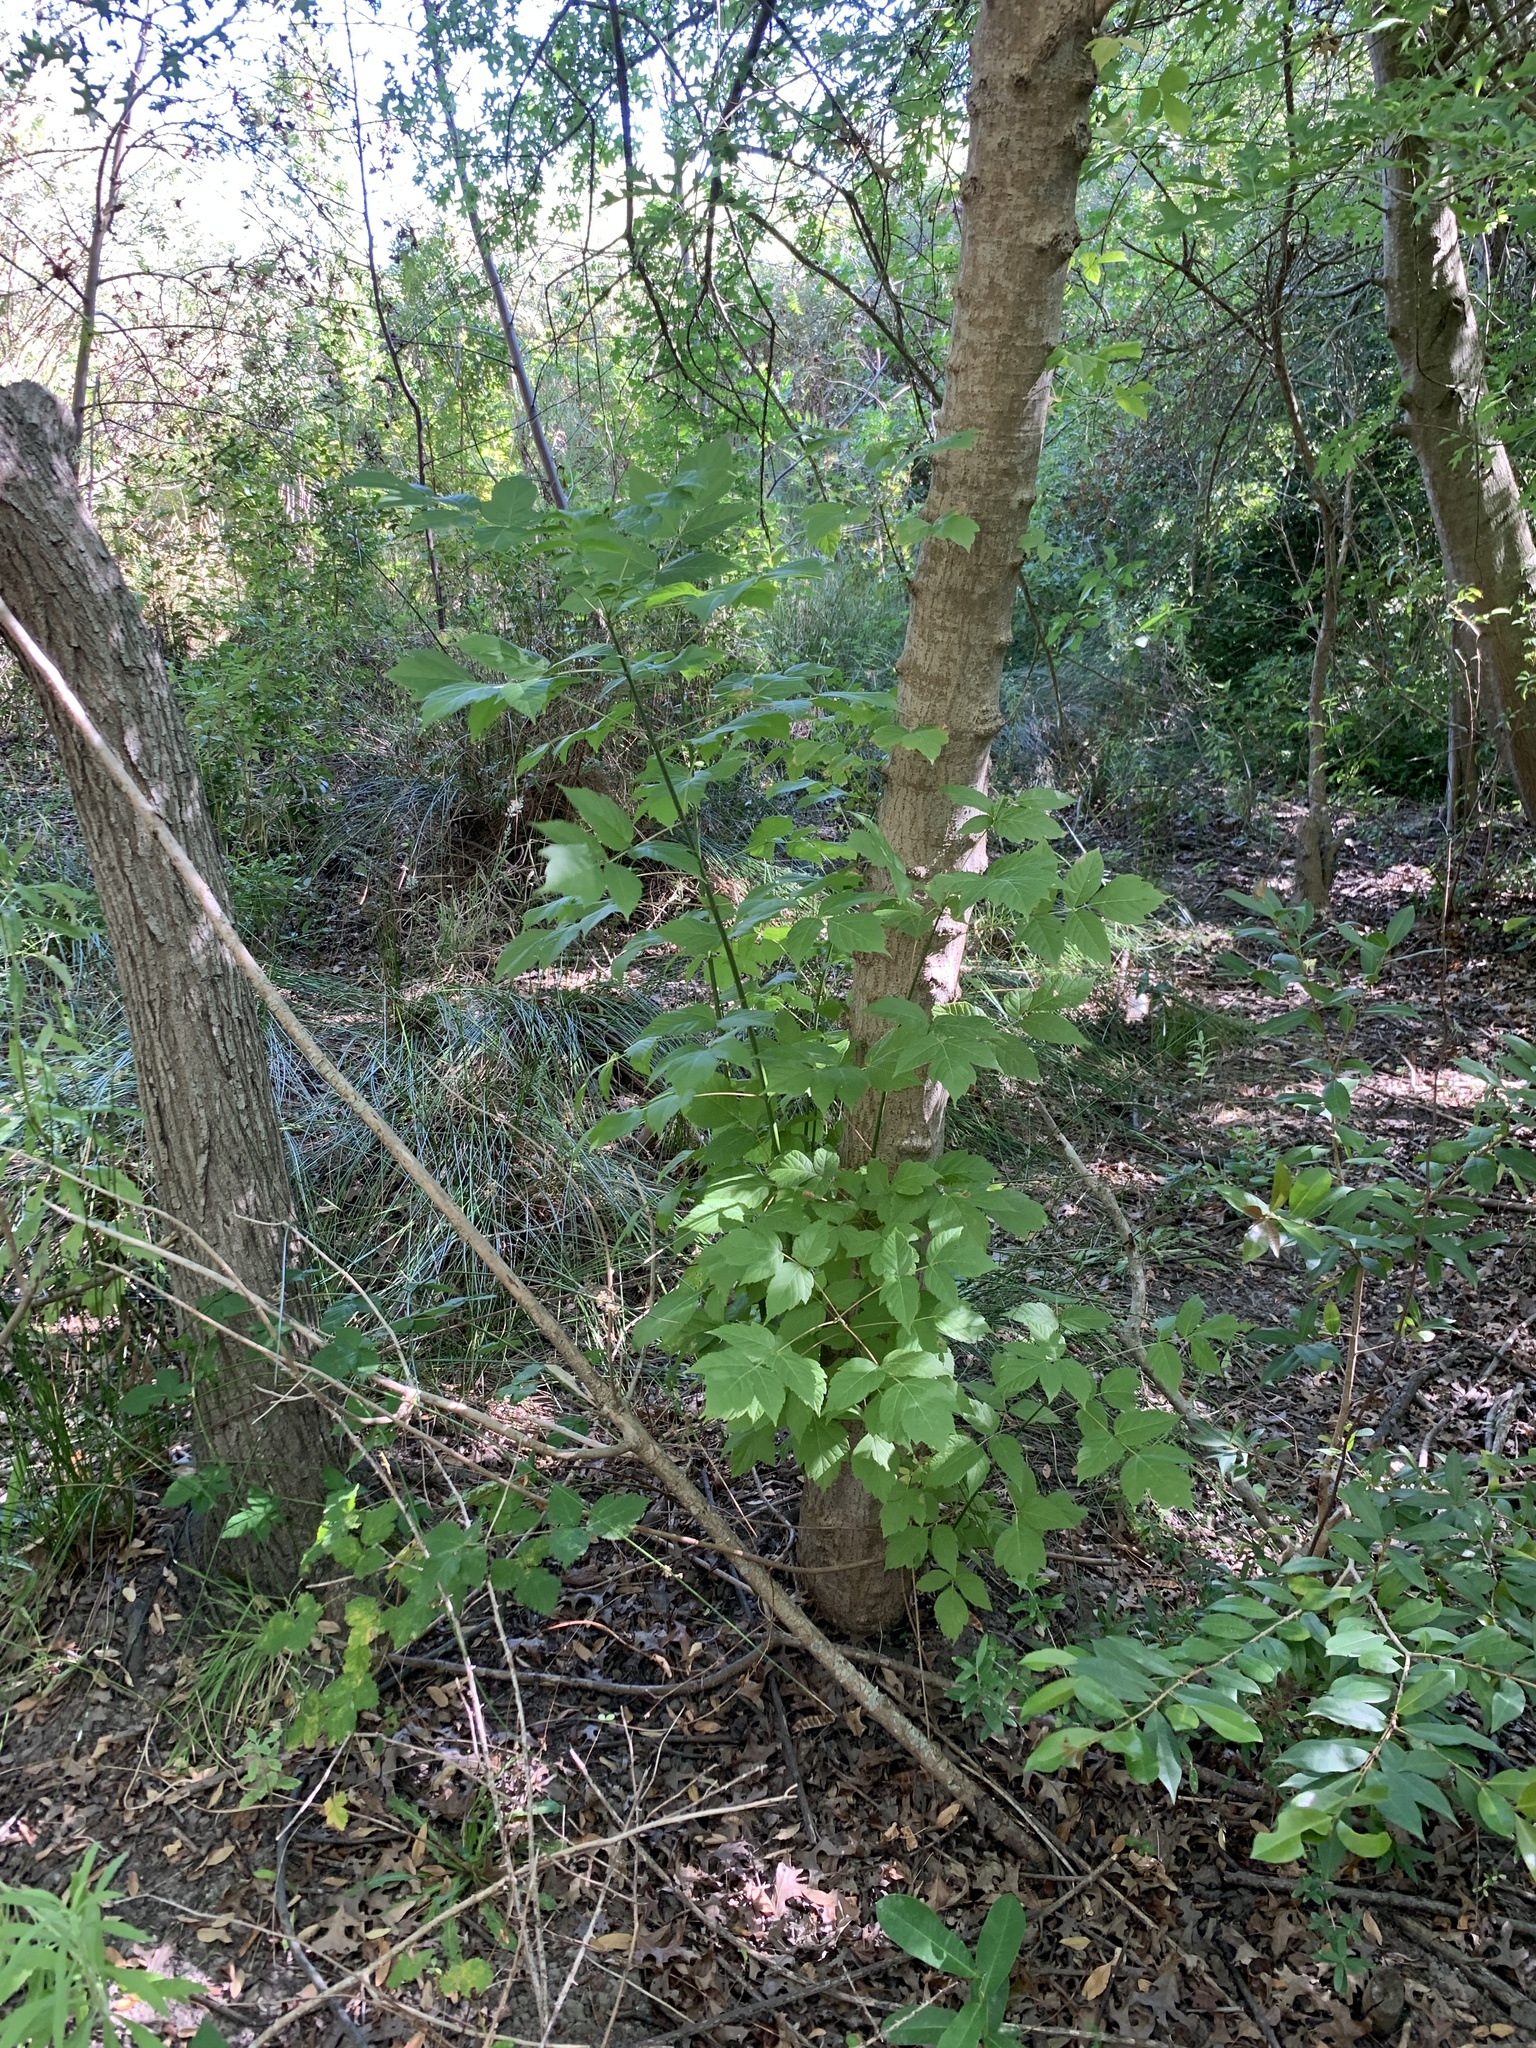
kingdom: Plantae
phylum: Tracheophyta
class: Magnoliopsida
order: Sapindales
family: Sapindaceae
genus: Acer
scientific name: Acer negundo
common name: Ashleaf maple
